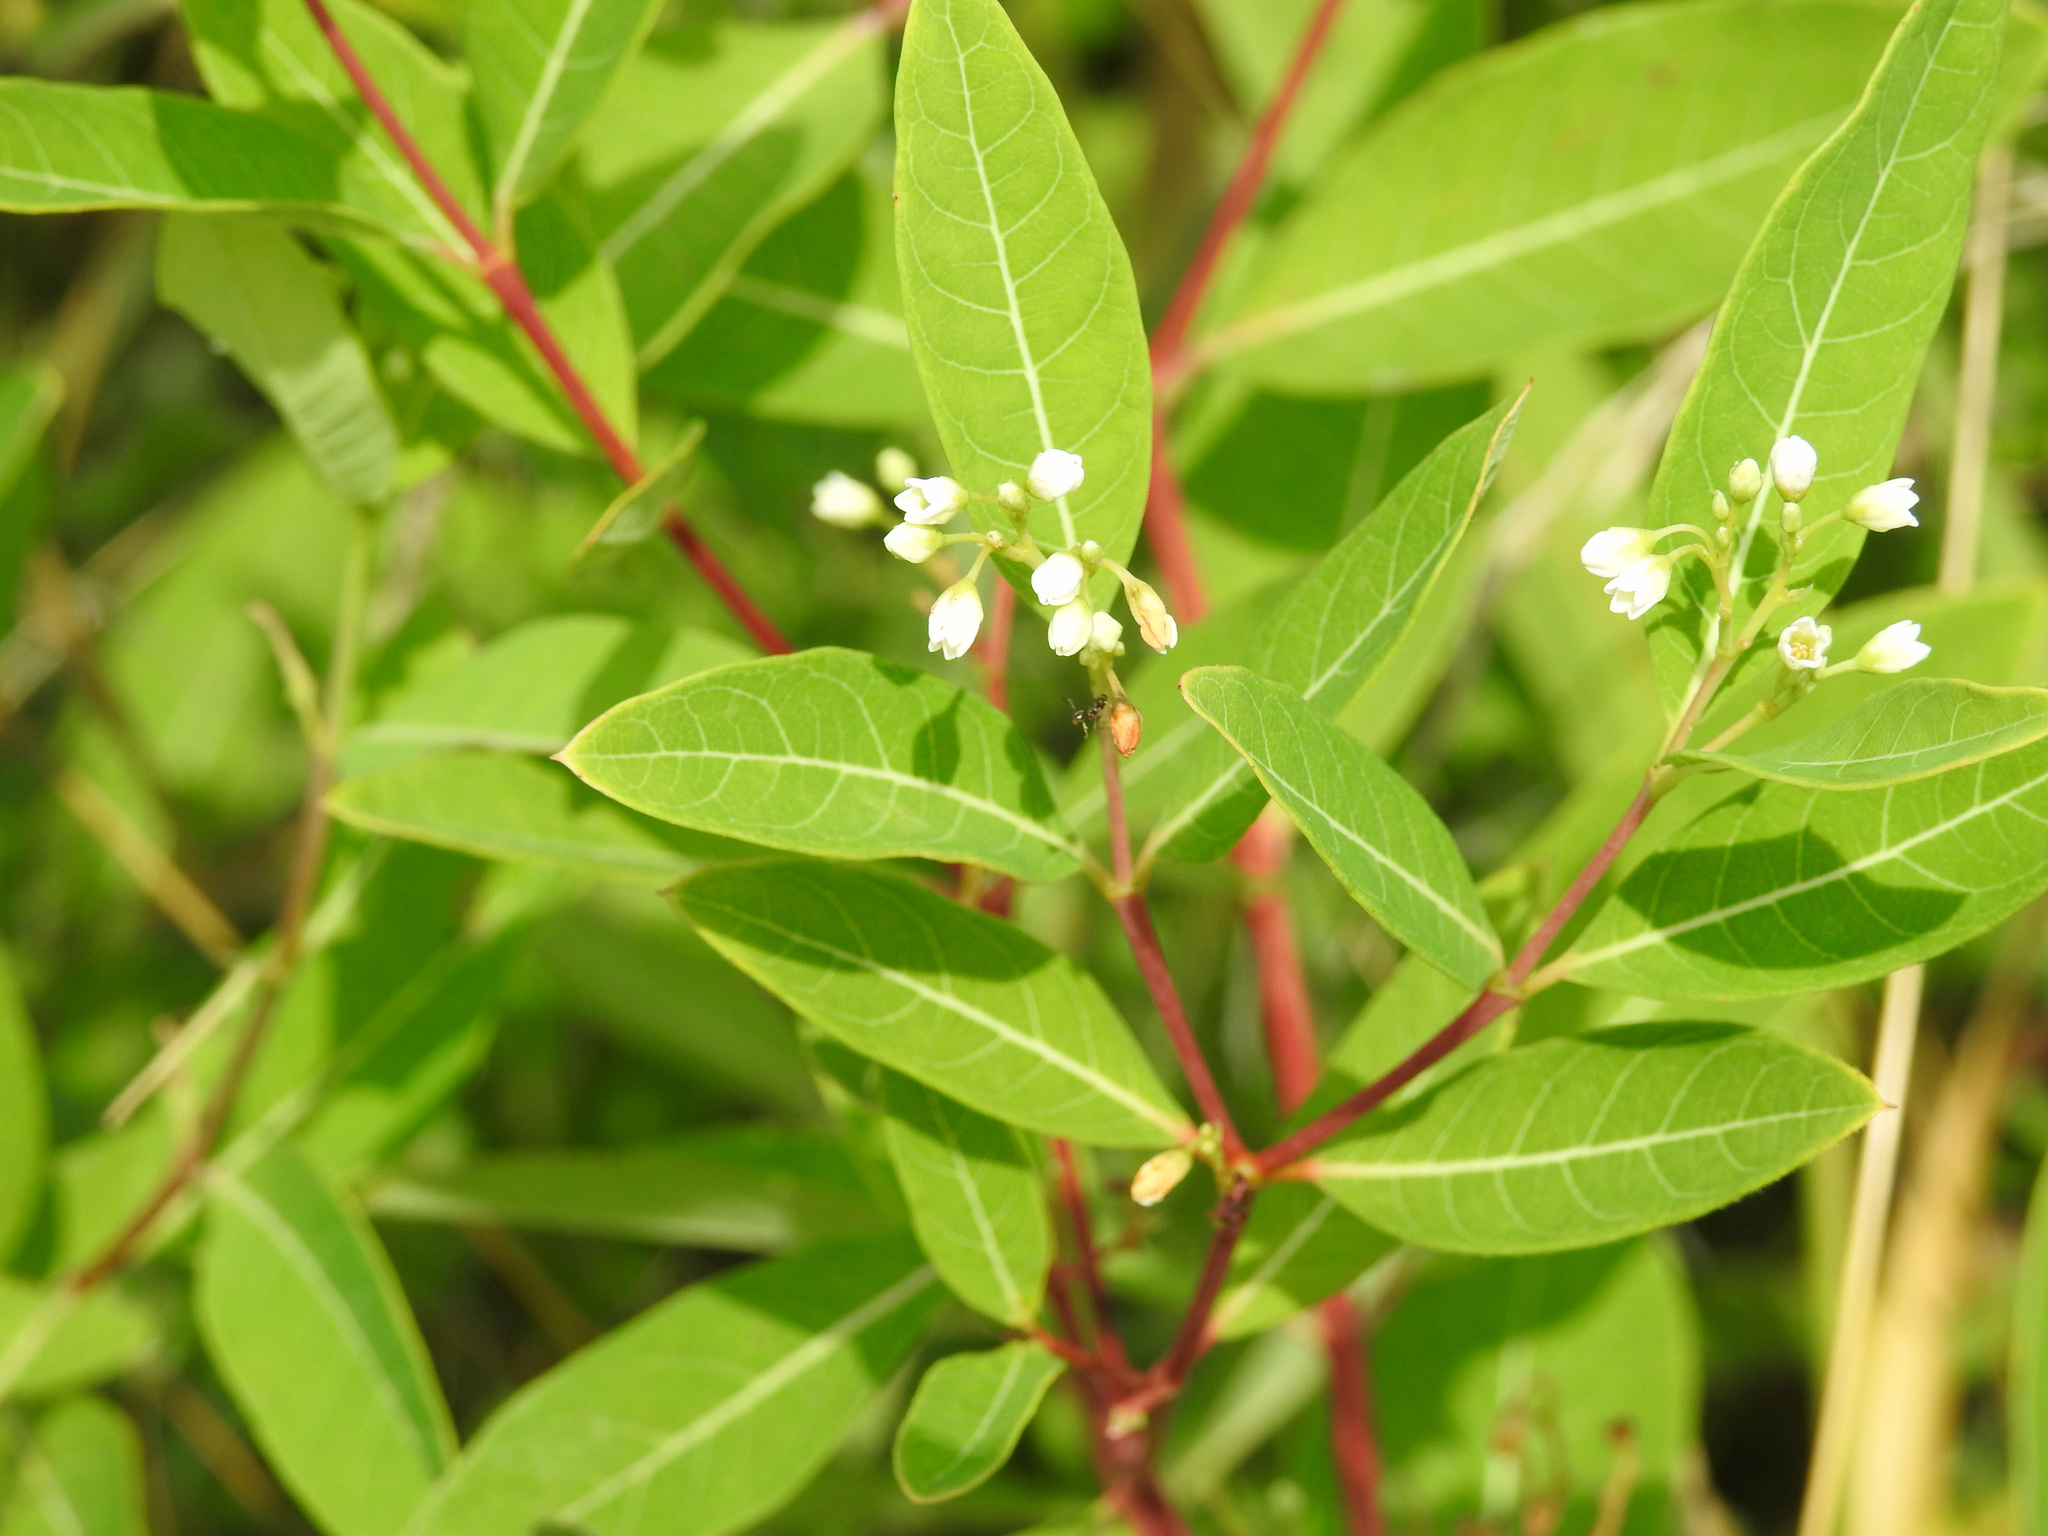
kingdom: Plantae
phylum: Tracheophyta
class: Magnoliopsida
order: Gentianales
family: Apocynaceae
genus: Apocynum
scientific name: Apocynum cannabinum
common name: Hemp dogbane
